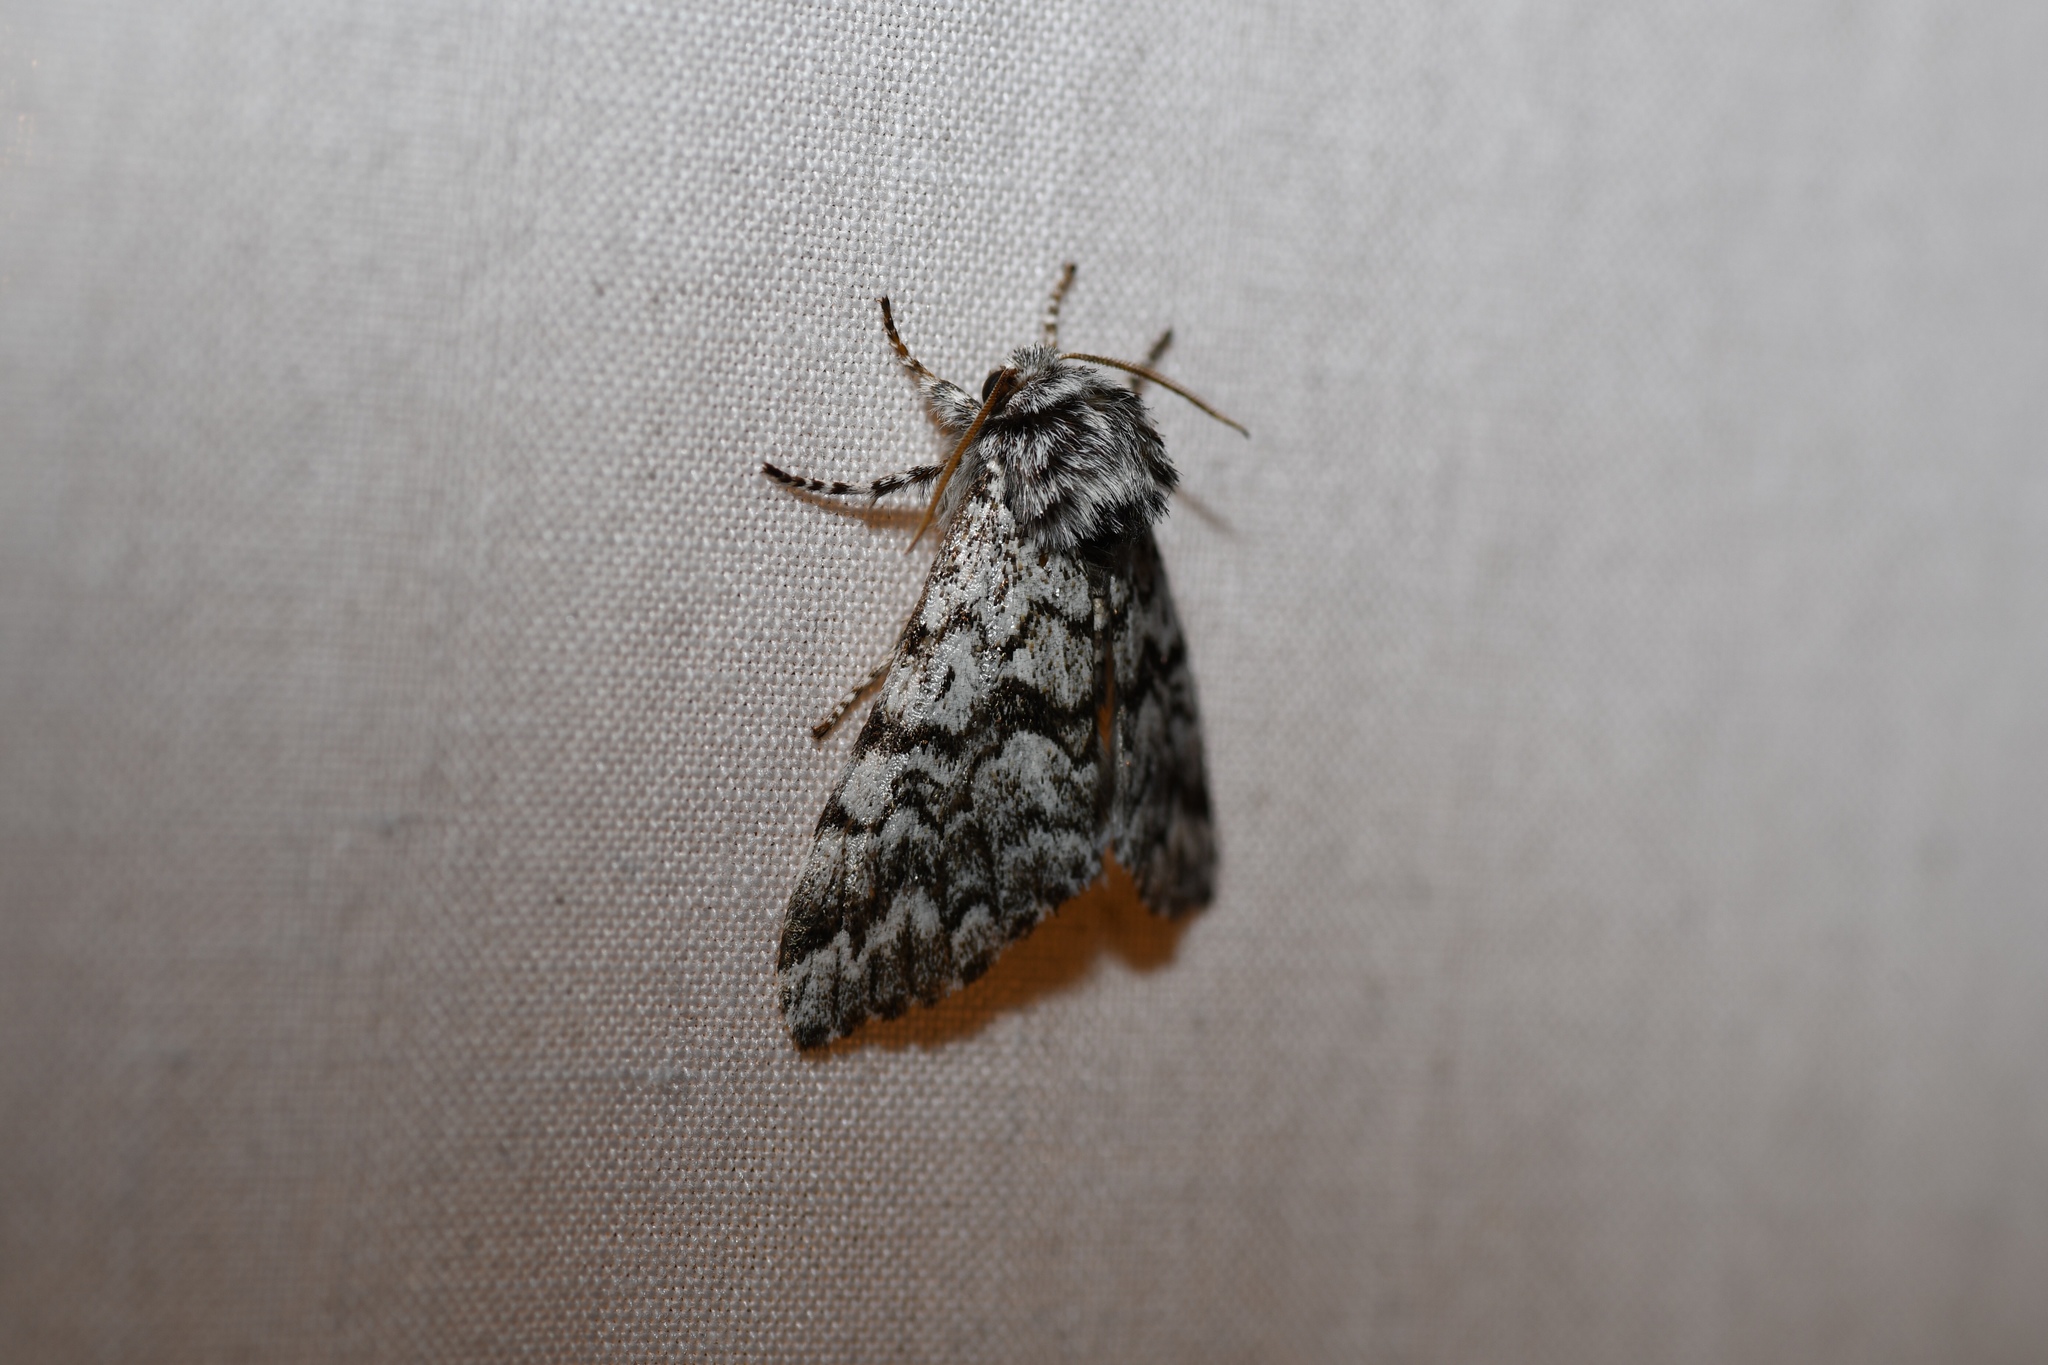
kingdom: Animalia
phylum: Arthropoda
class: Insecta
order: Lepidoptera
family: Noctuidae
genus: Panthea
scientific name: Panthea acronyctoides
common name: Black zigzag moth
